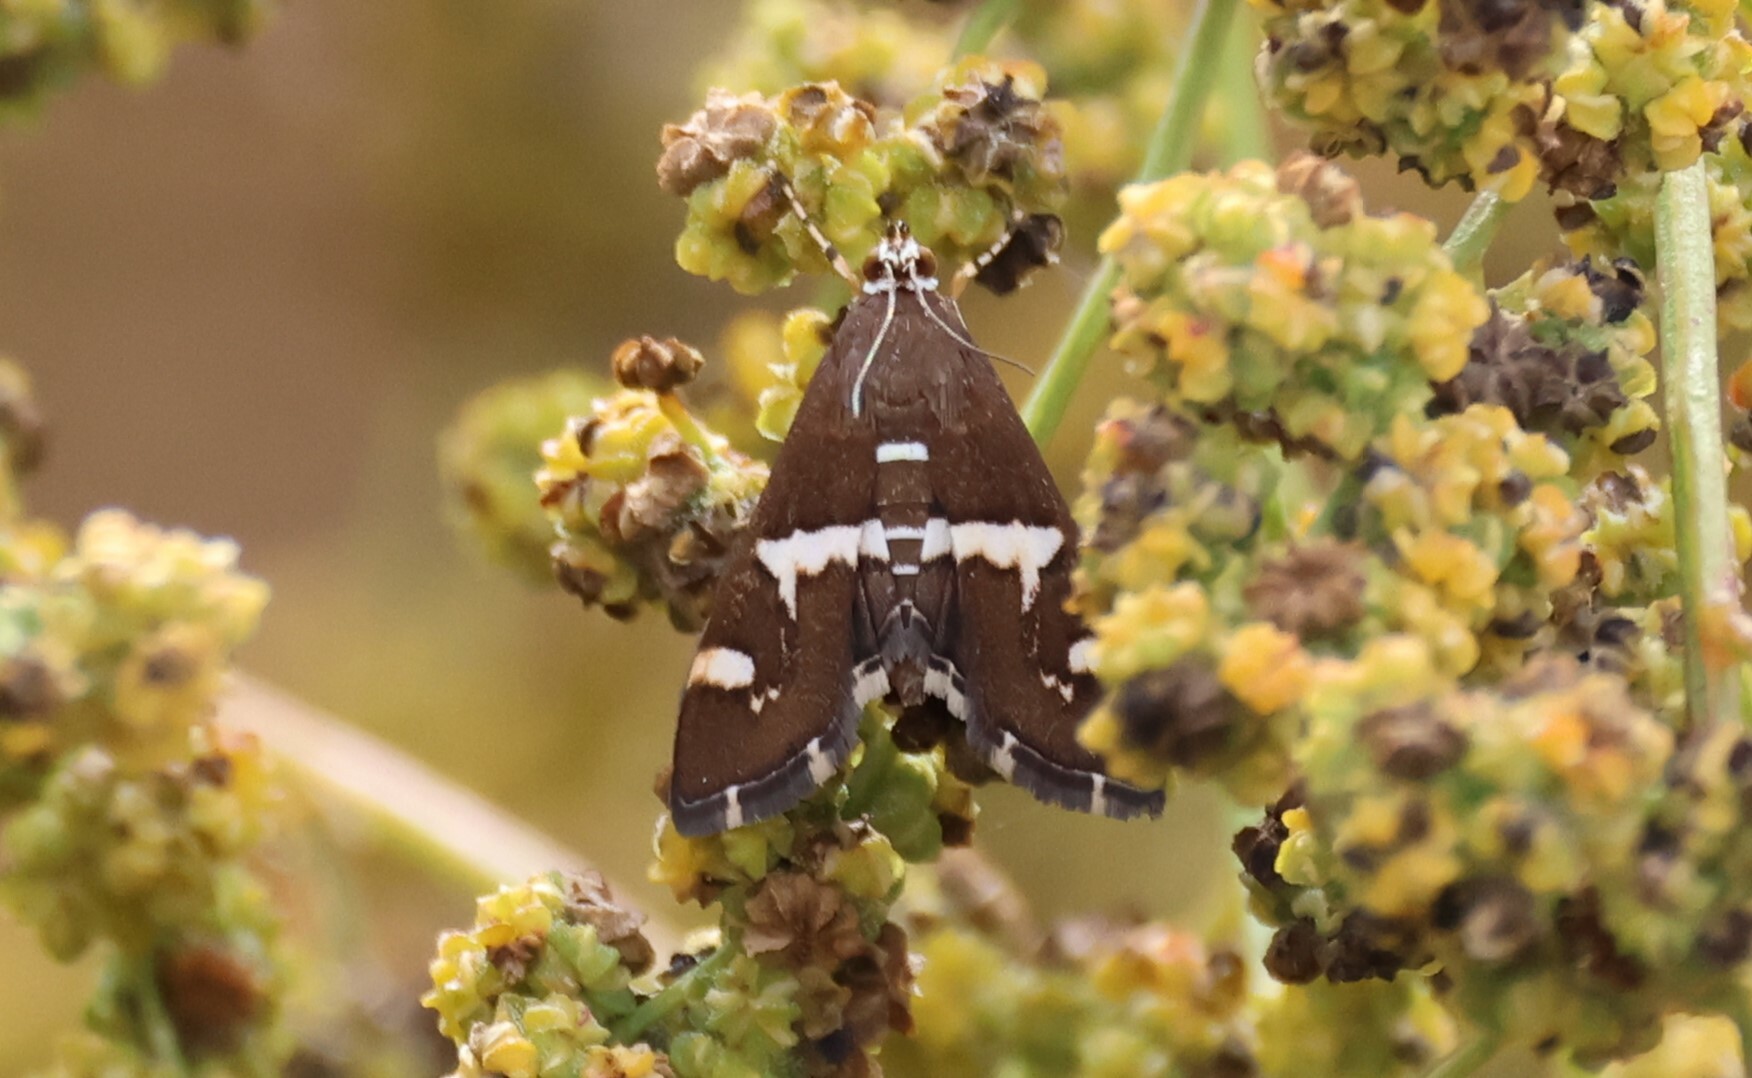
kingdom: Animalia
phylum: Arthropoda
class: Insecta
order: Lepidoptera
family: Crambidae
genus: Spoladea
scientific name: Spoladea recurvalis
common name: Beet webworm moth
